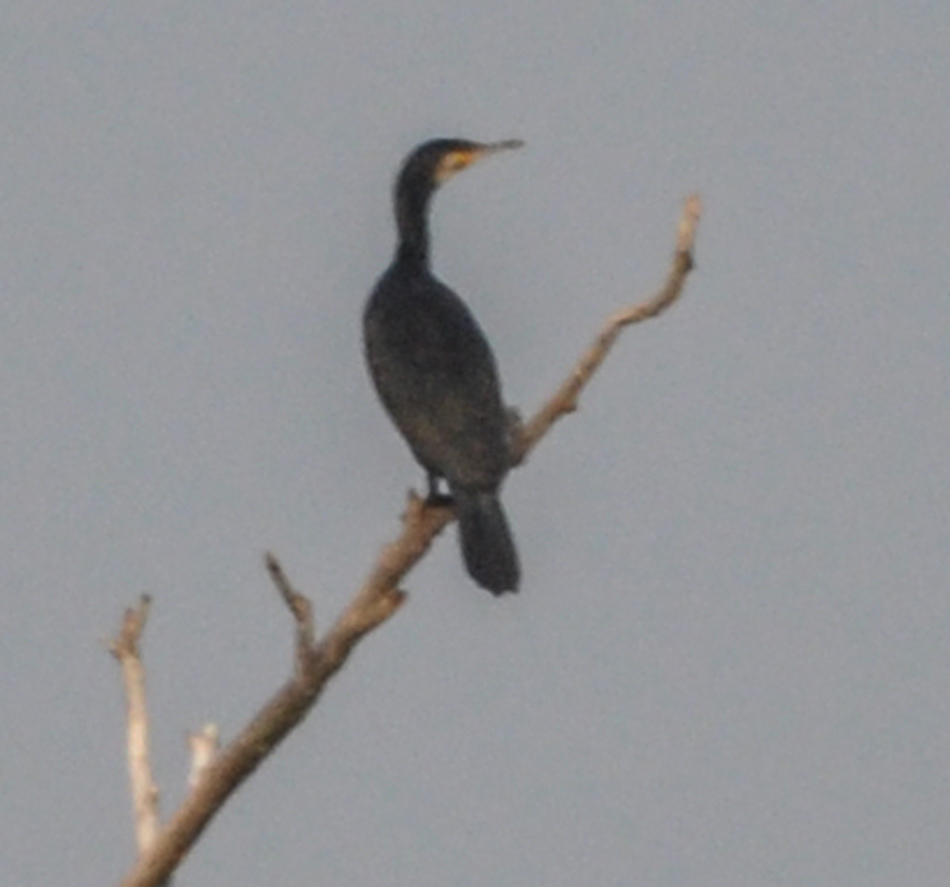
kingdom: Animalia
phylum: Chordata
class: Aves
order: Suliformes
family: Phalacrocoracidae
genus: Phalacrocorax
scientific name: Phalacrocorax carbo
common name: Great cormorant
